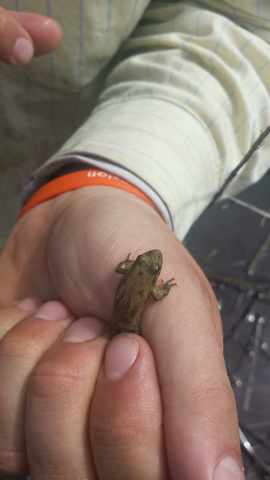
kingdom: Animalia
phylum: Chordata
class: Amphibia
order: Anura
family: Hylidae
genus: Acris
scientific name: Acris blanchardi
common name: Blanchard's cricket frog
